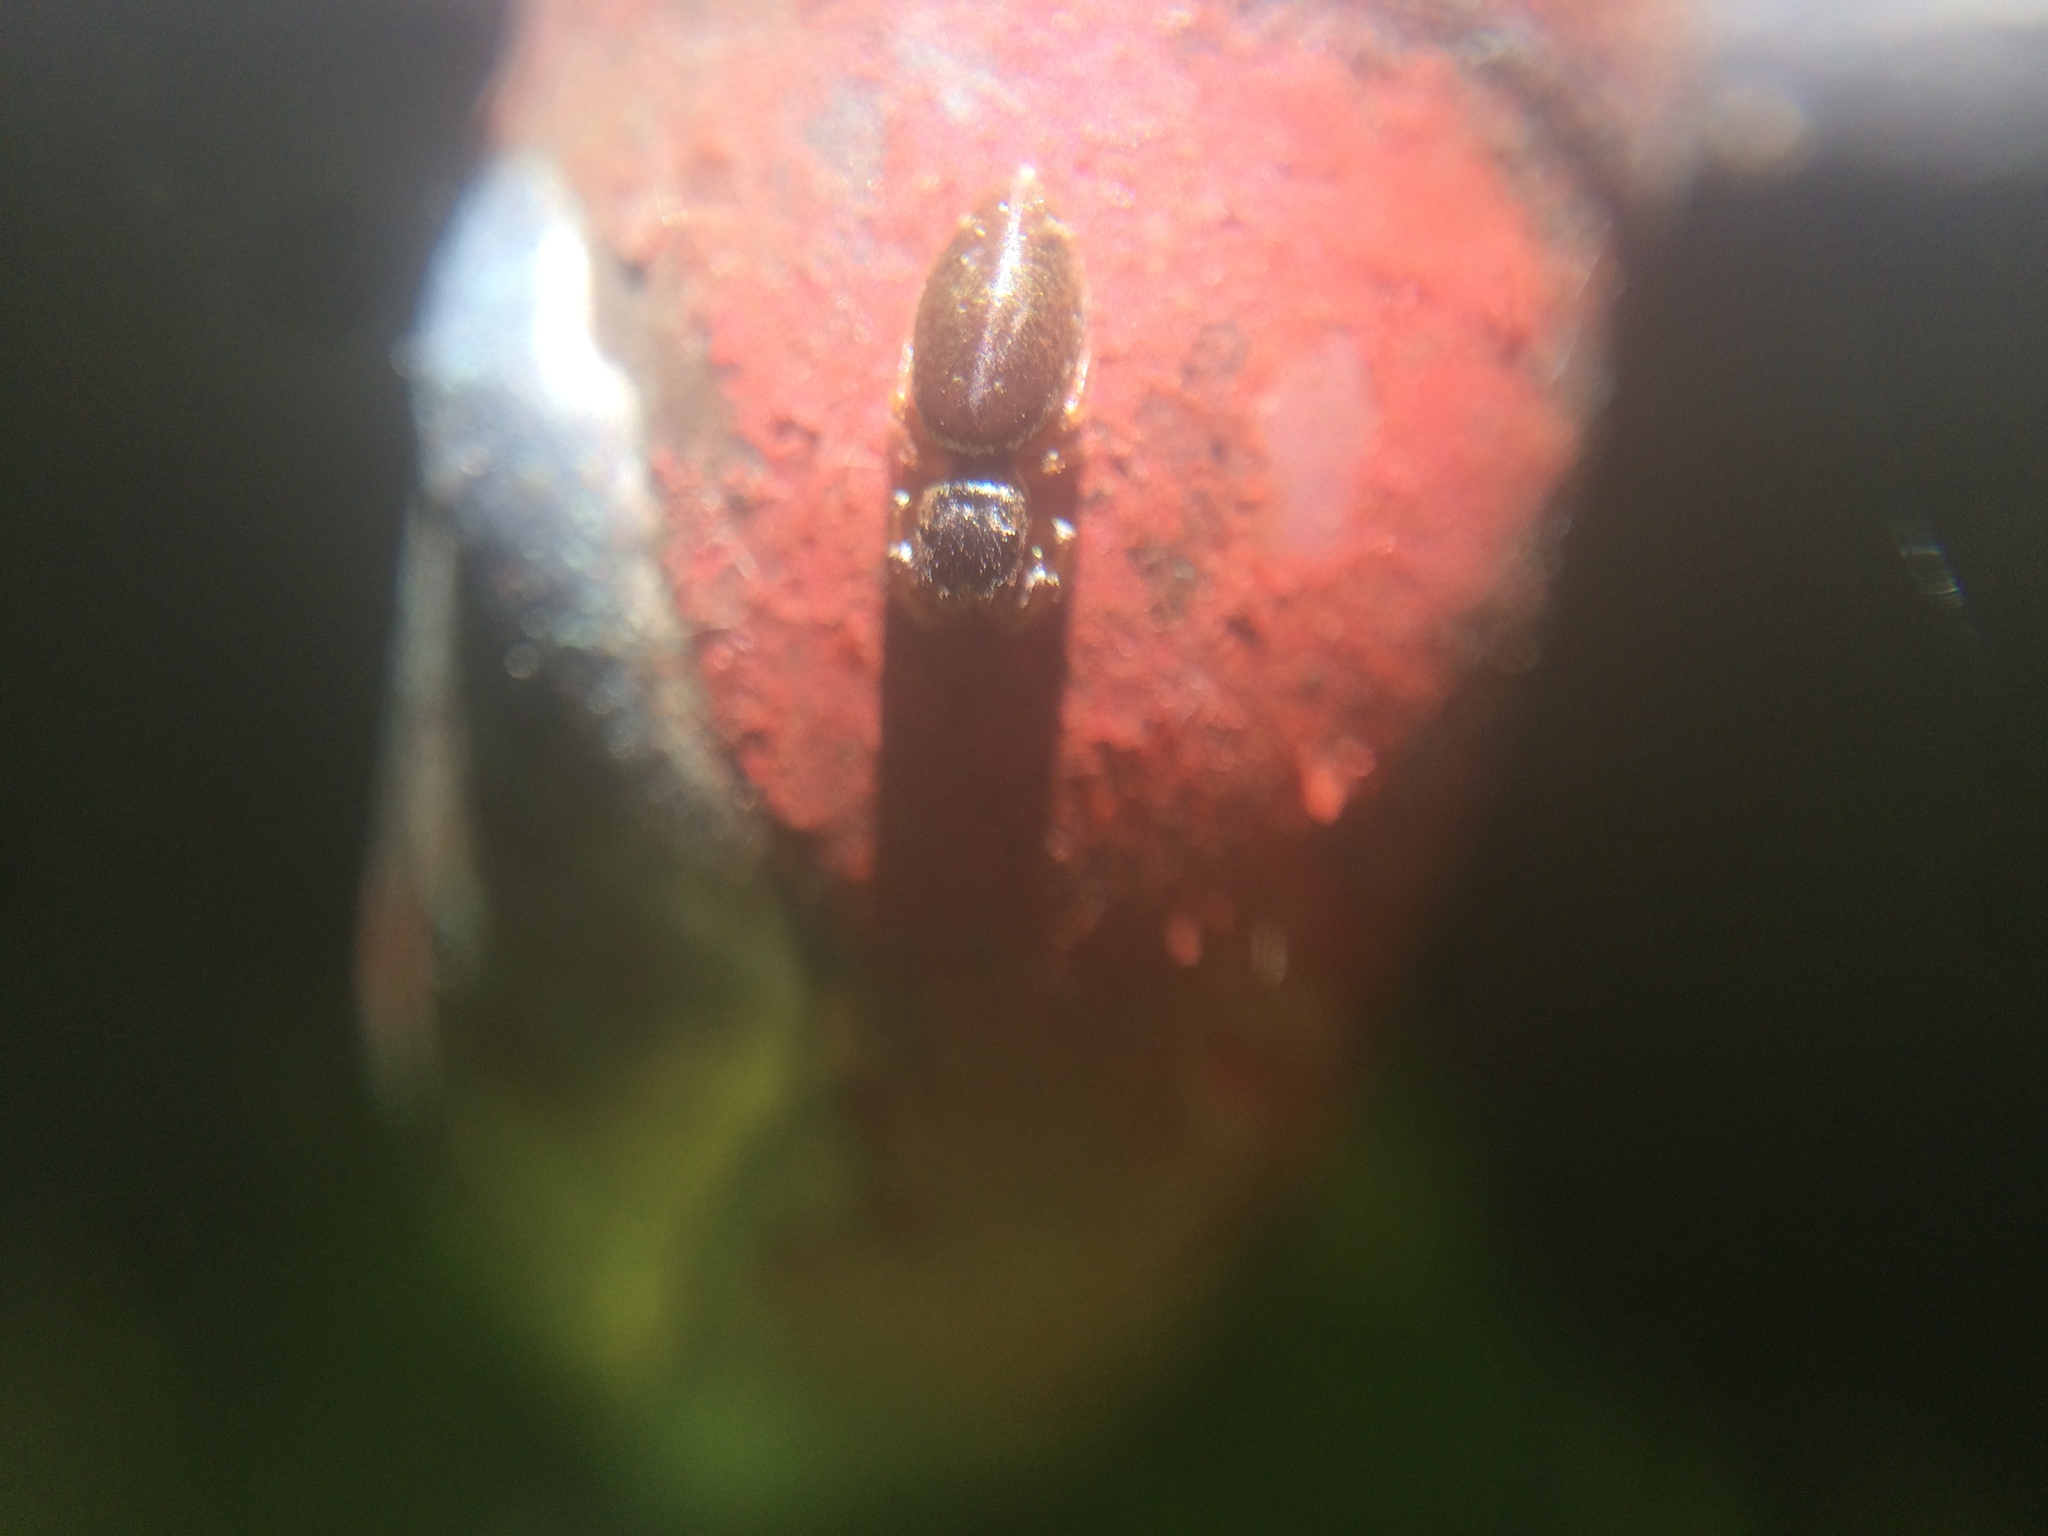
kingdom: Animalia
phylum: Arthropoda
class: Arachnida
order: Araneae
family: Salticidae
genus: Sassacus
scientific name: Sassacus vitis
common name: Jumping spiders
